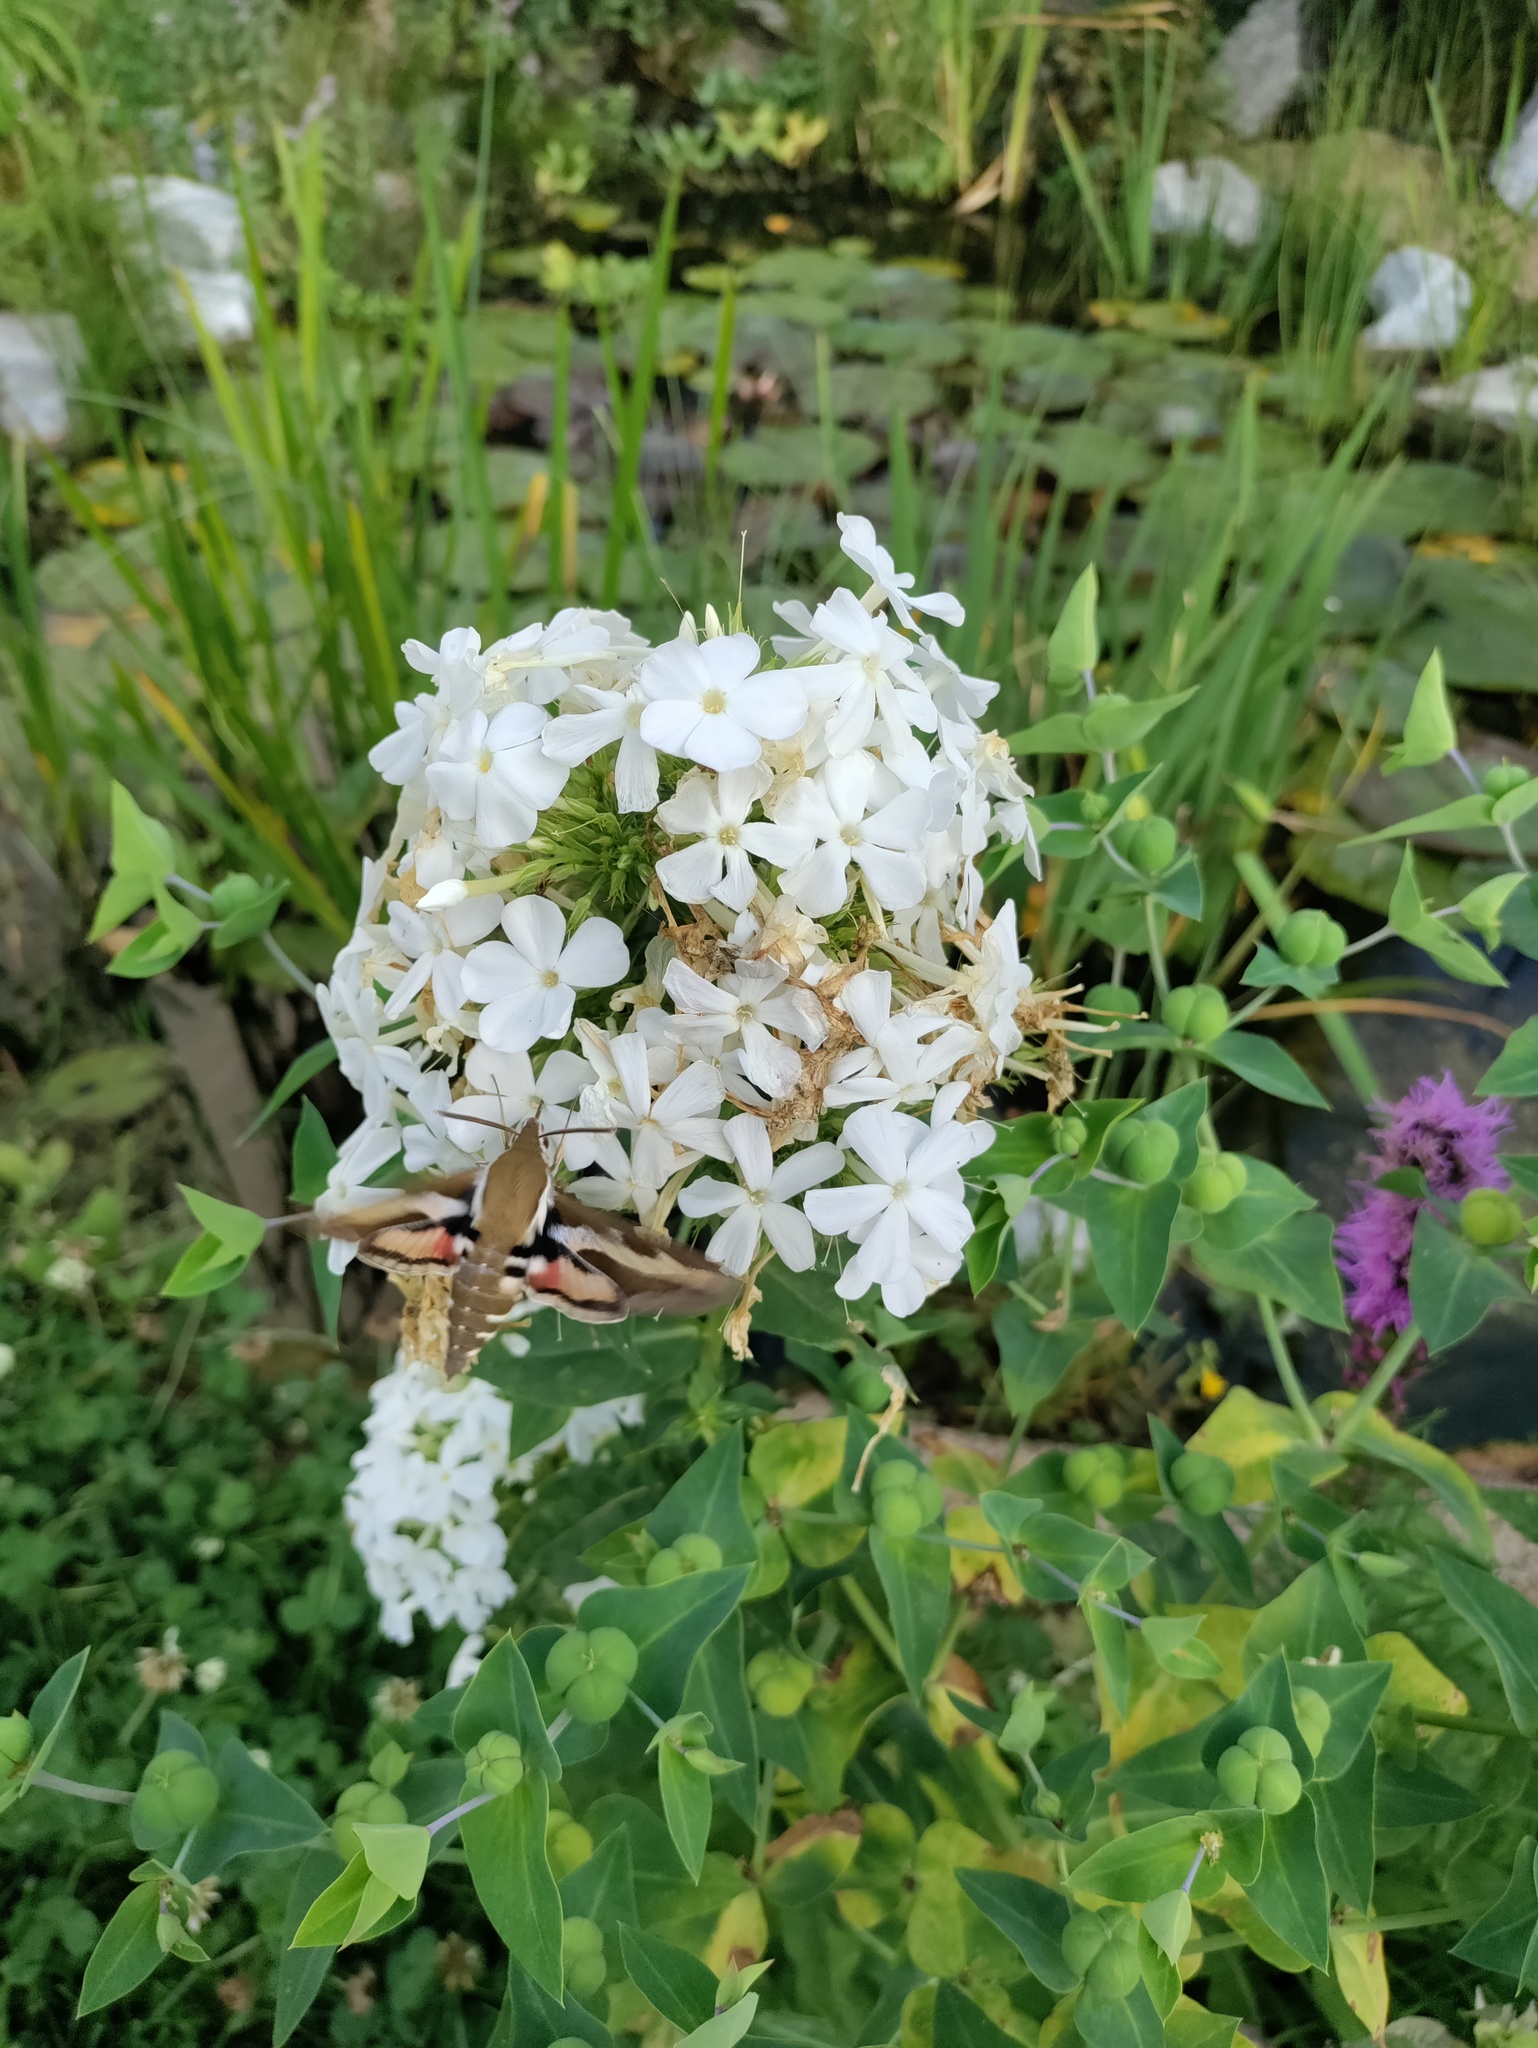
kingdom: Animalia
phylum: Arthropoda
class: Insecta
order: Lepidoptera
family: Sphingidae
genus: Hyles
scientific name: Hyles gallii
